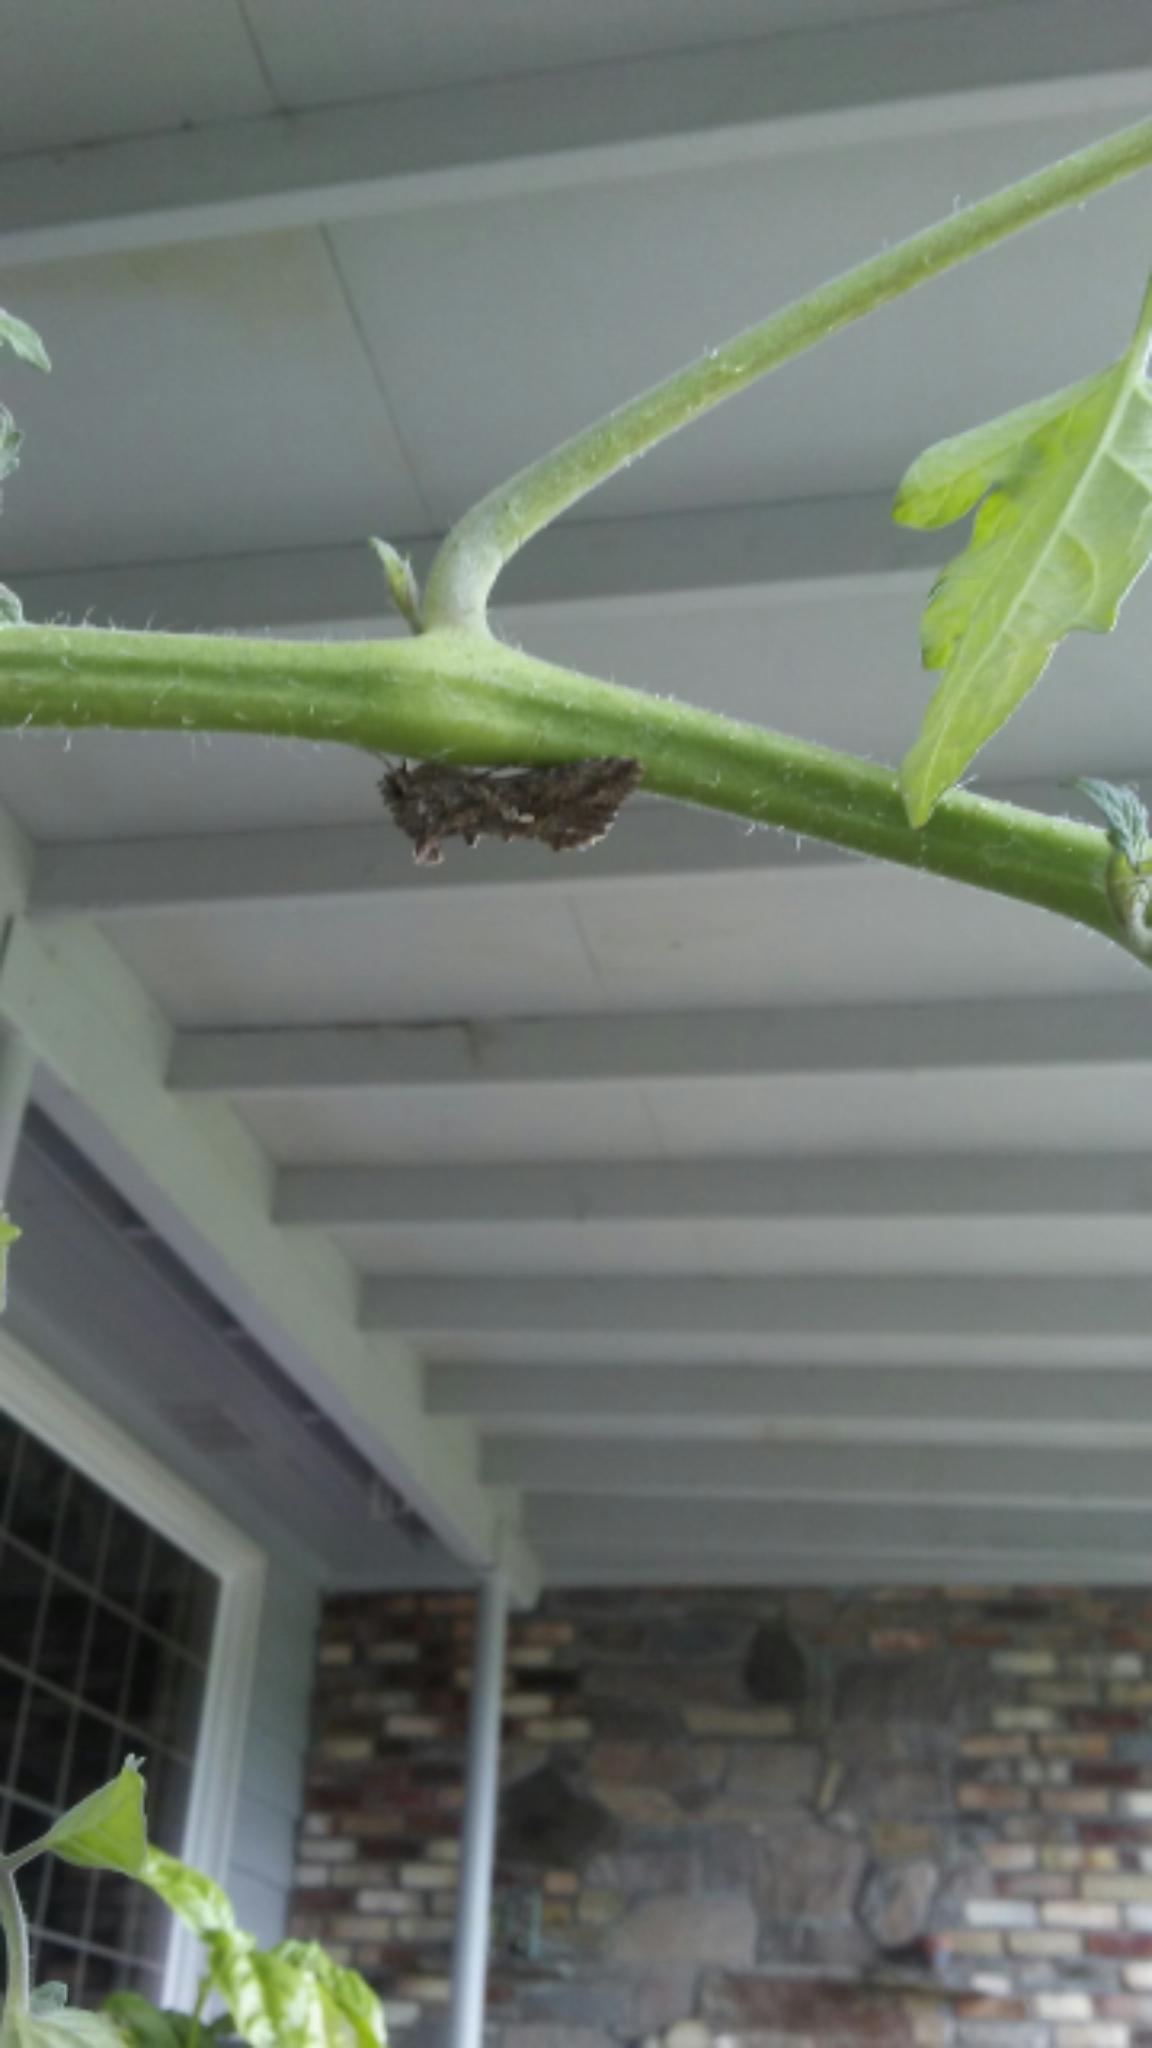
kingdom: Animalia
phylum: Arthropoda
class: Insecta
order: Lepidoptera
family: Noctuidae
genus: Trichoplusia
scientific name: Trichoplusia ni
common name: Ni moth
